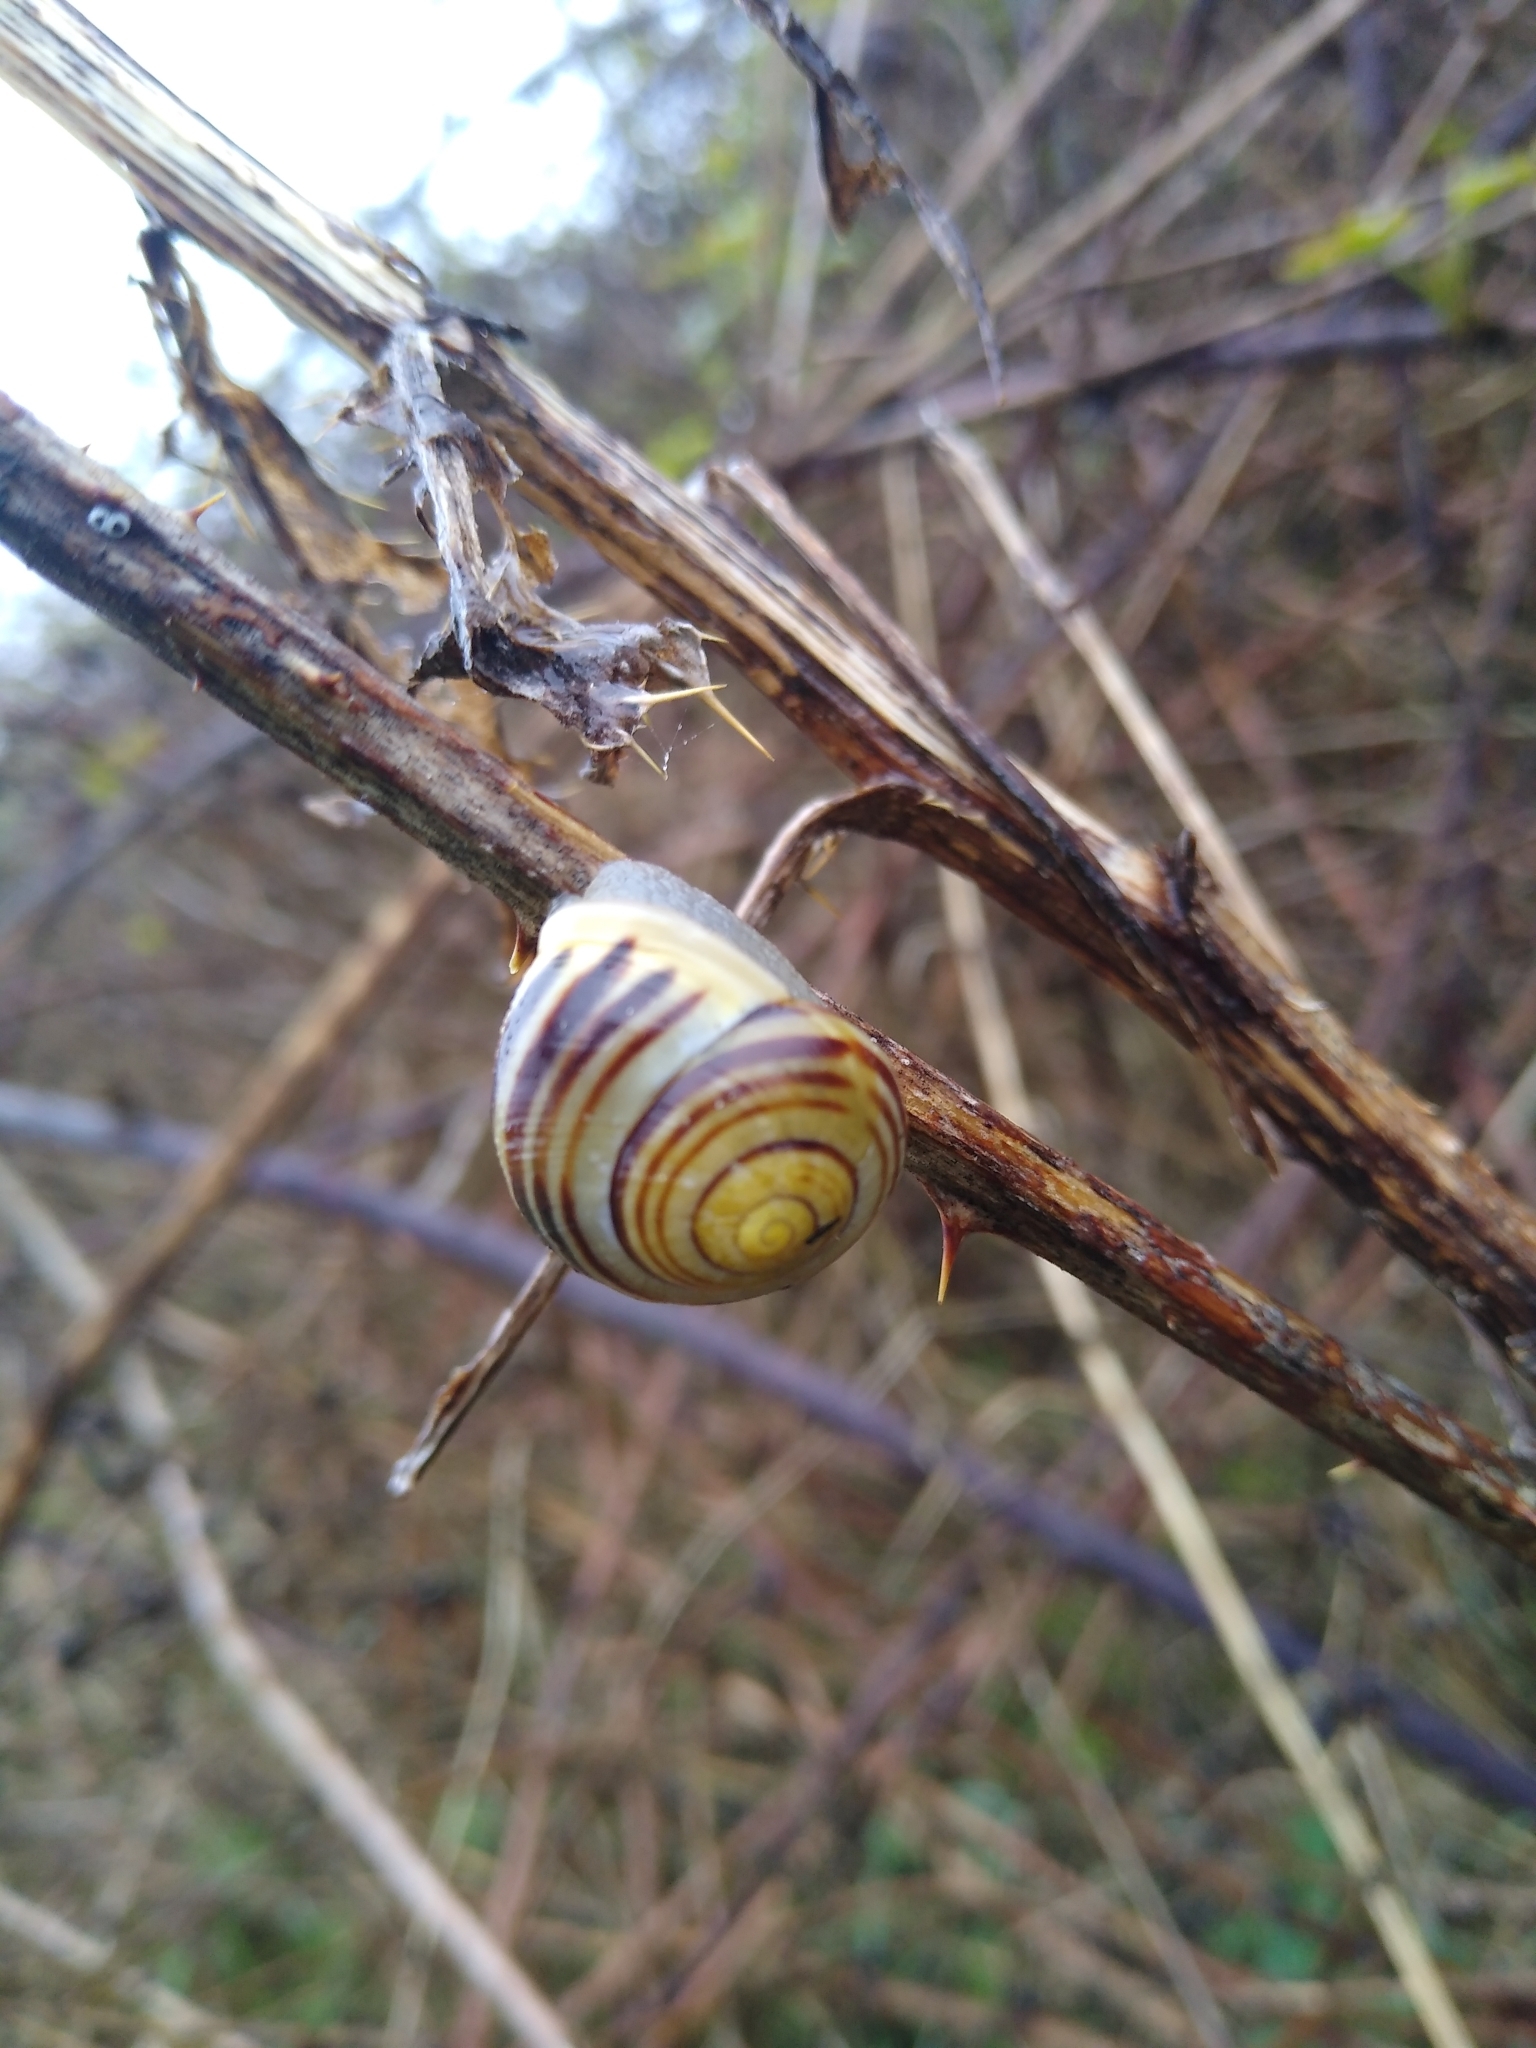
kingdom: Animalia
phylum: Mollusca
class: Gastropoda
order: Stylommatophora
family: Helicidae
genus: Cepaea
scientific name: Cepaea hortensis
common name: White-lip gardensnail
